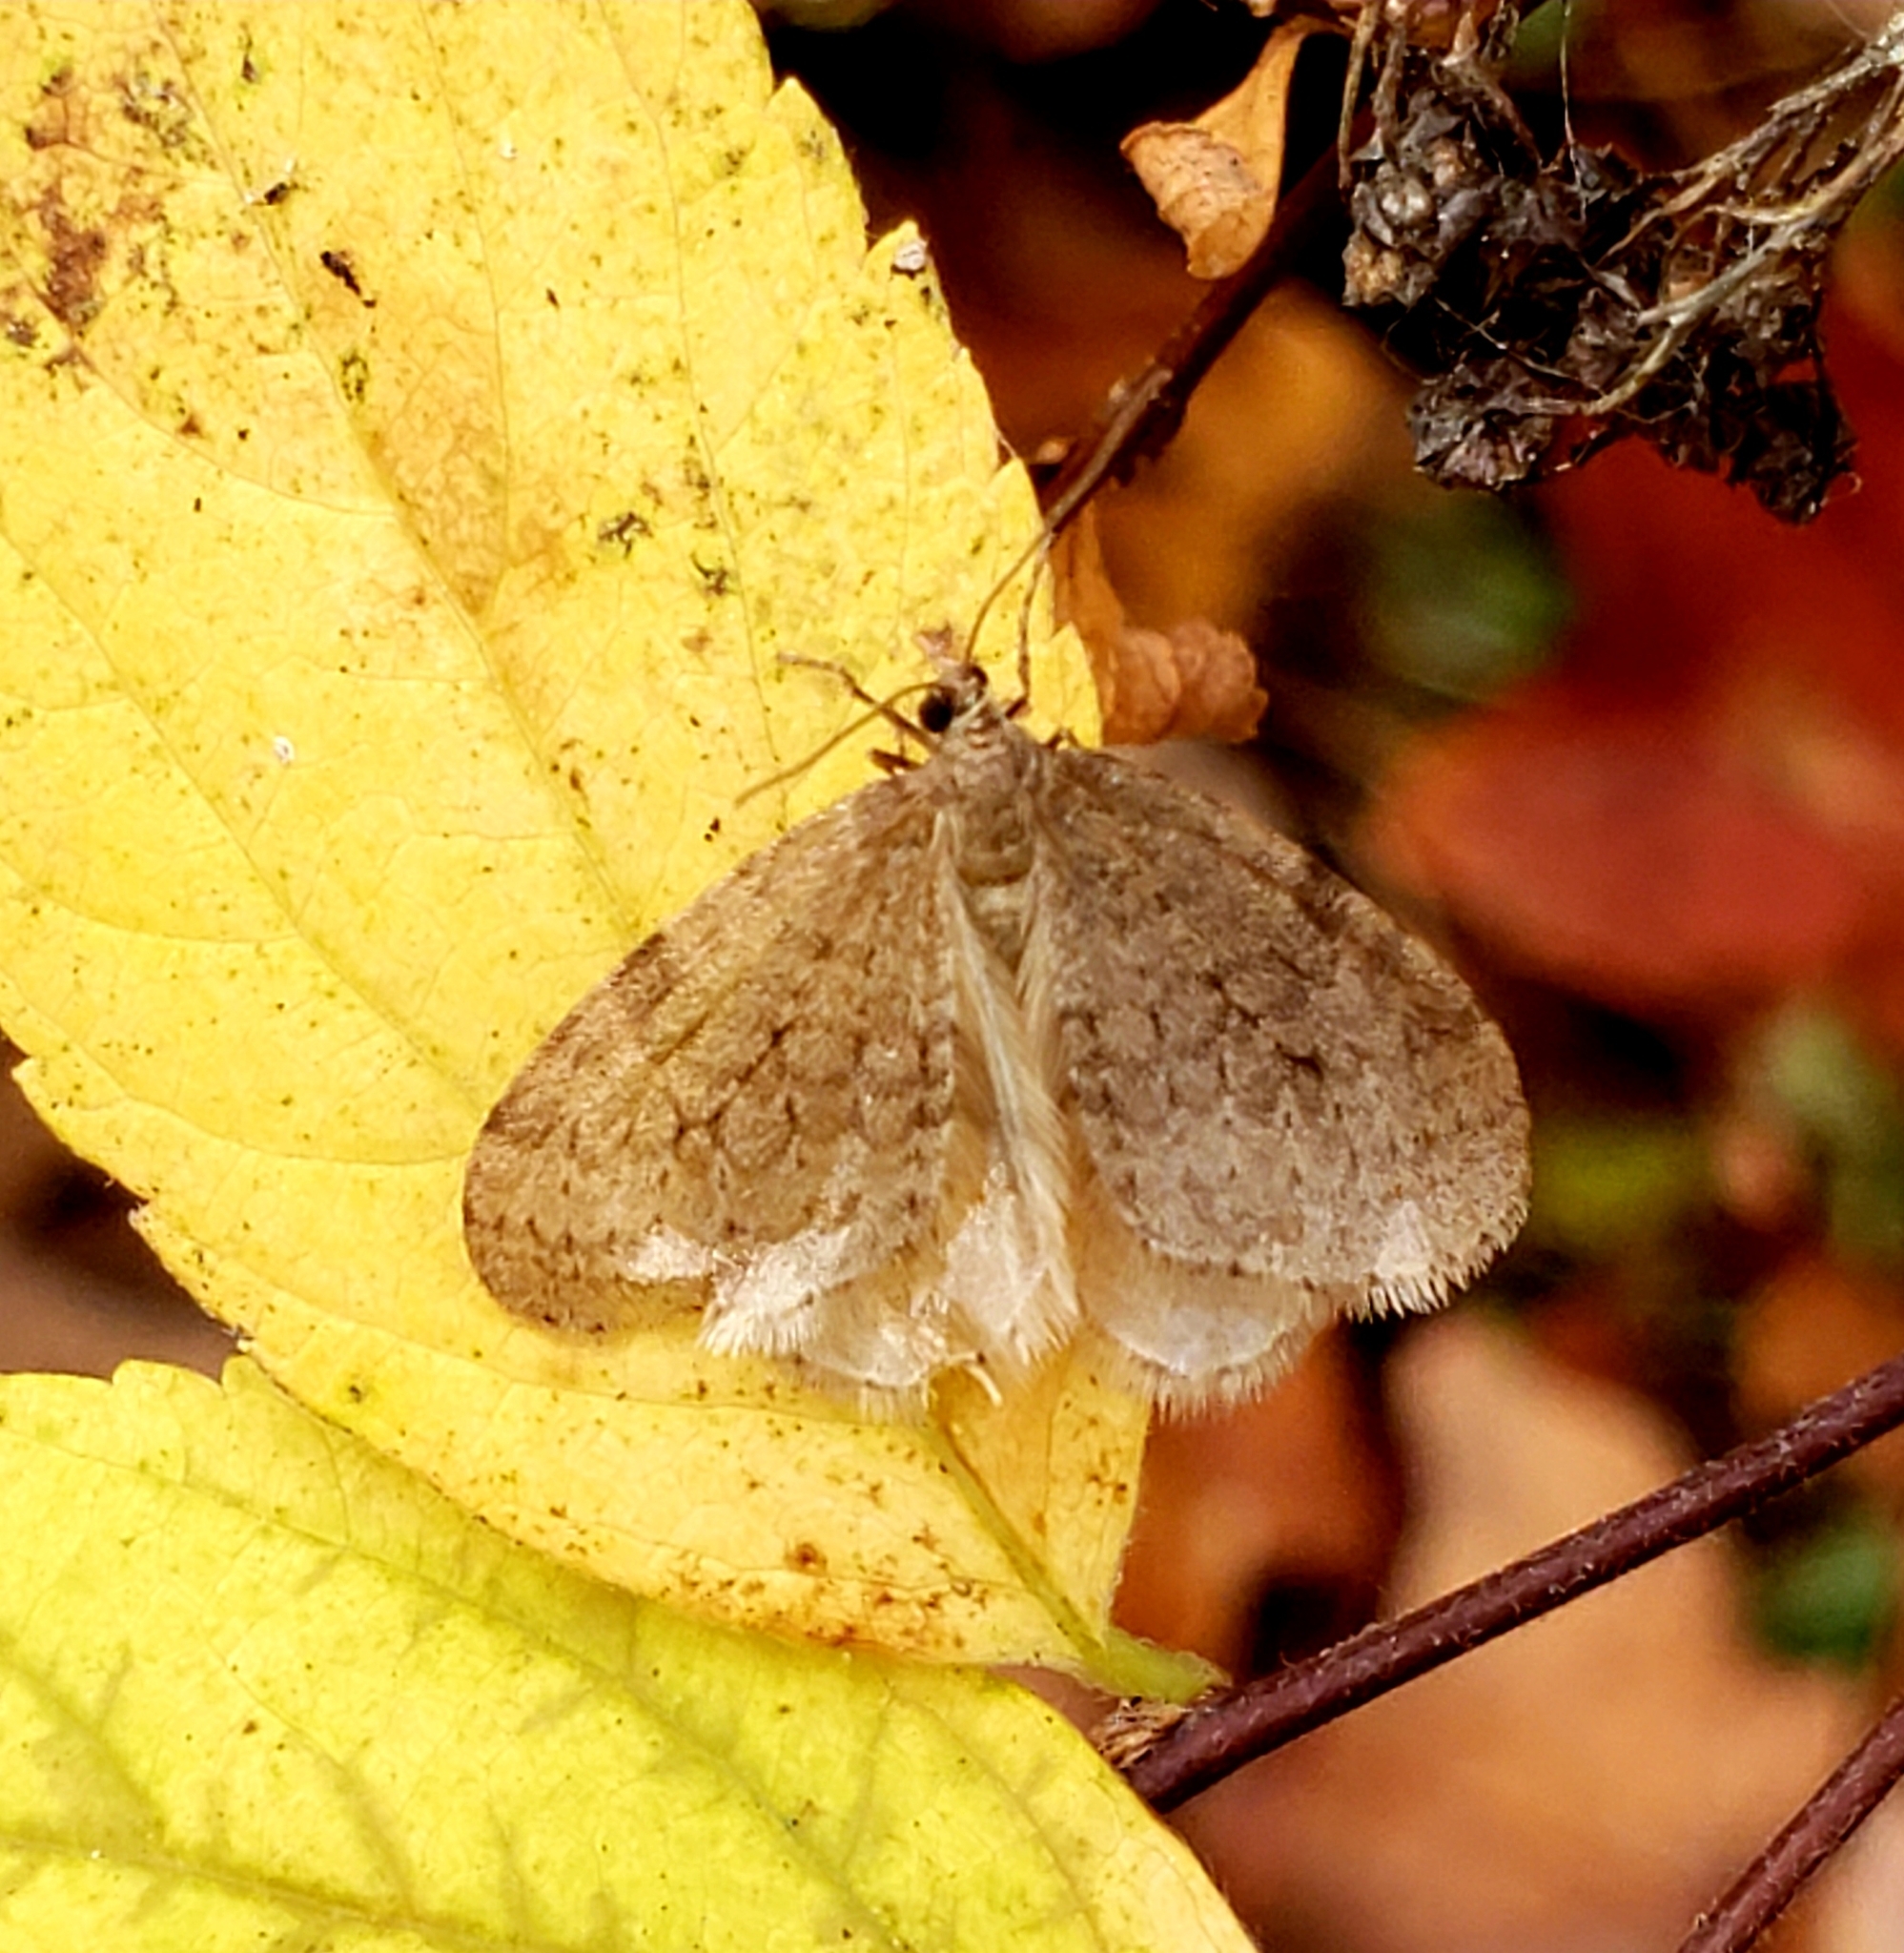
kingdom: Animalia
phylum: Arthropoda
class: Insecta
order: Lepidoptera
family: Geometridae
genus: Operophtera
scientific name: Operophtera bruceata
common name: Bruce spanworm
